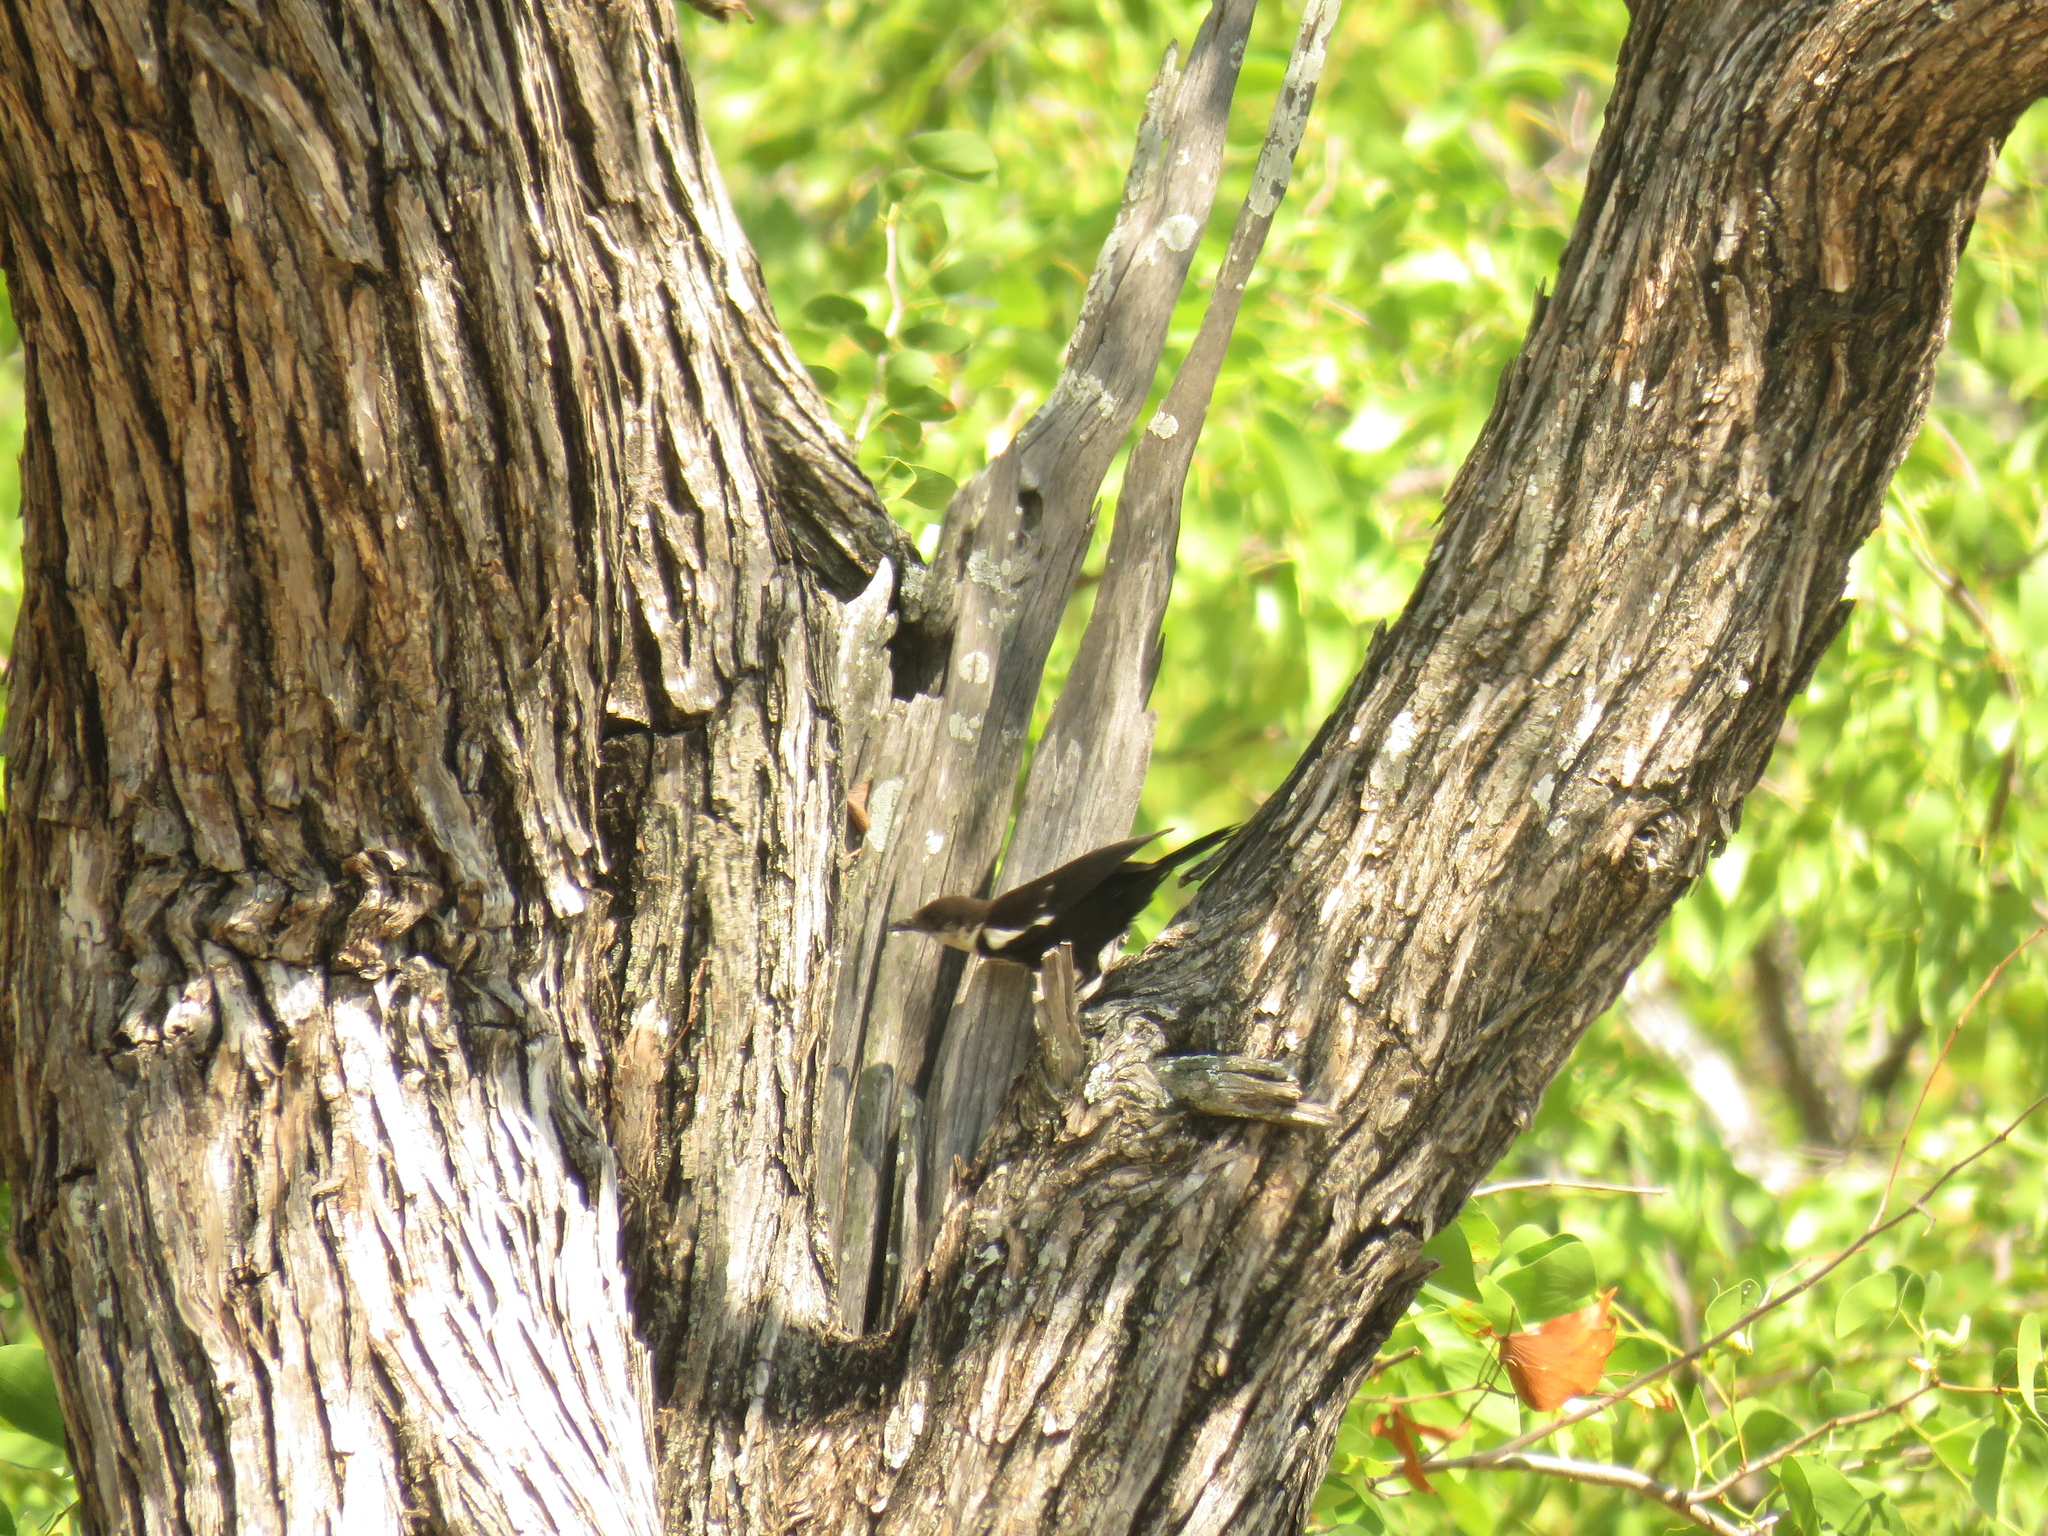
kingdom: Animalia
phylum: Chordata
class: Aves
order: Passeriformes
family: Muscicapidae
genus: Pentholaea
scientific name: Pentholaea arnotti
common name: Arnot's chat
